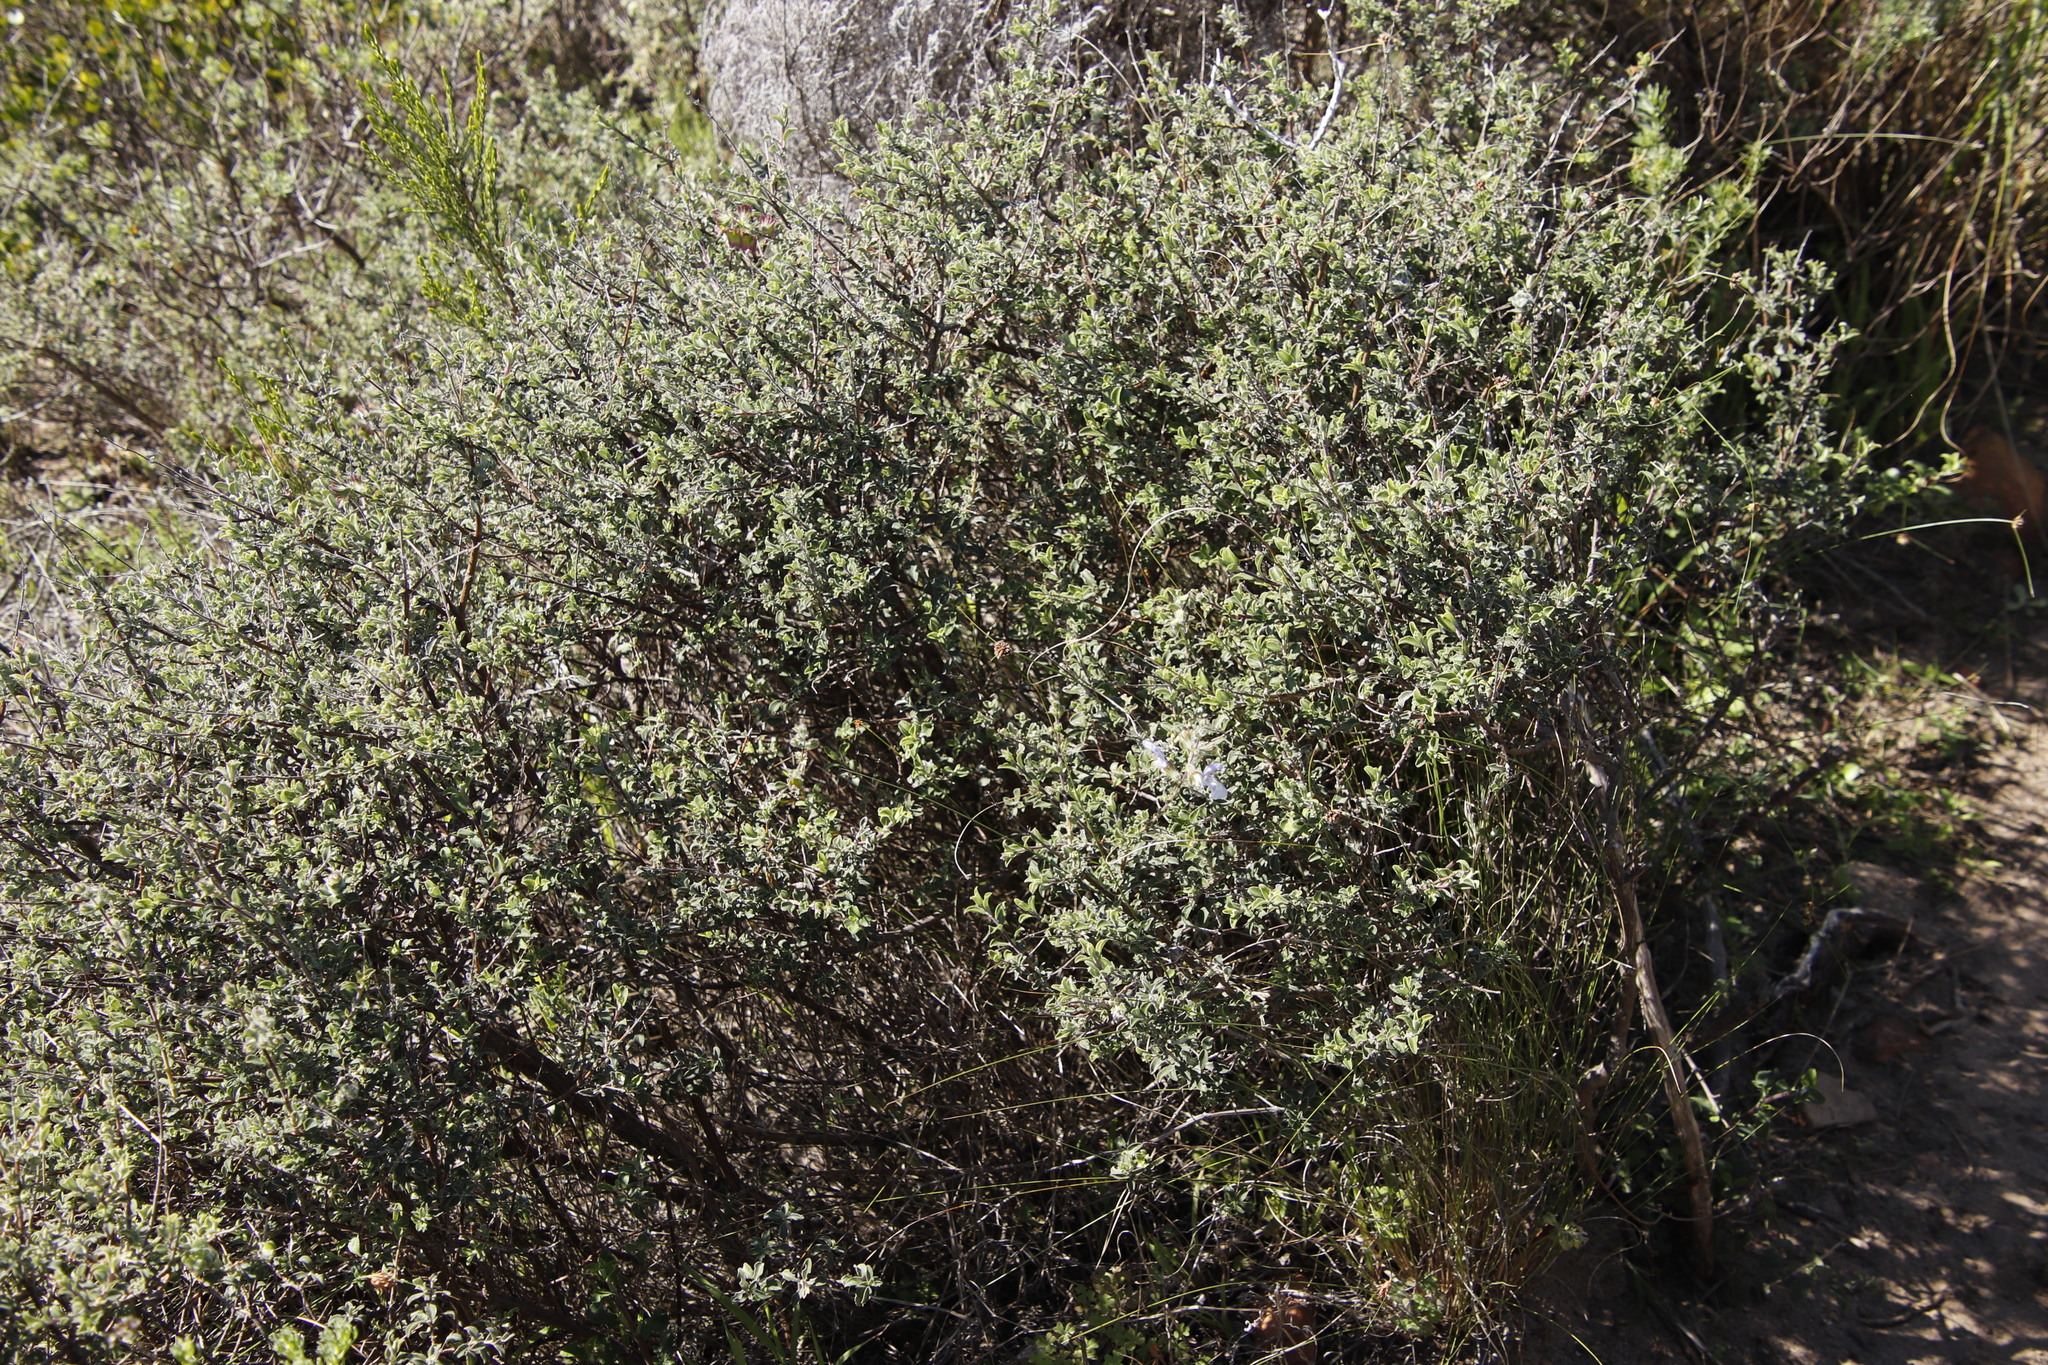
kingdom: Plantae
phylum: Tracheophyta
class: Magnoliopsida
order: Lamiales
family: Lamiaceae
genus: Salvia
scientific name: Salvia africana
